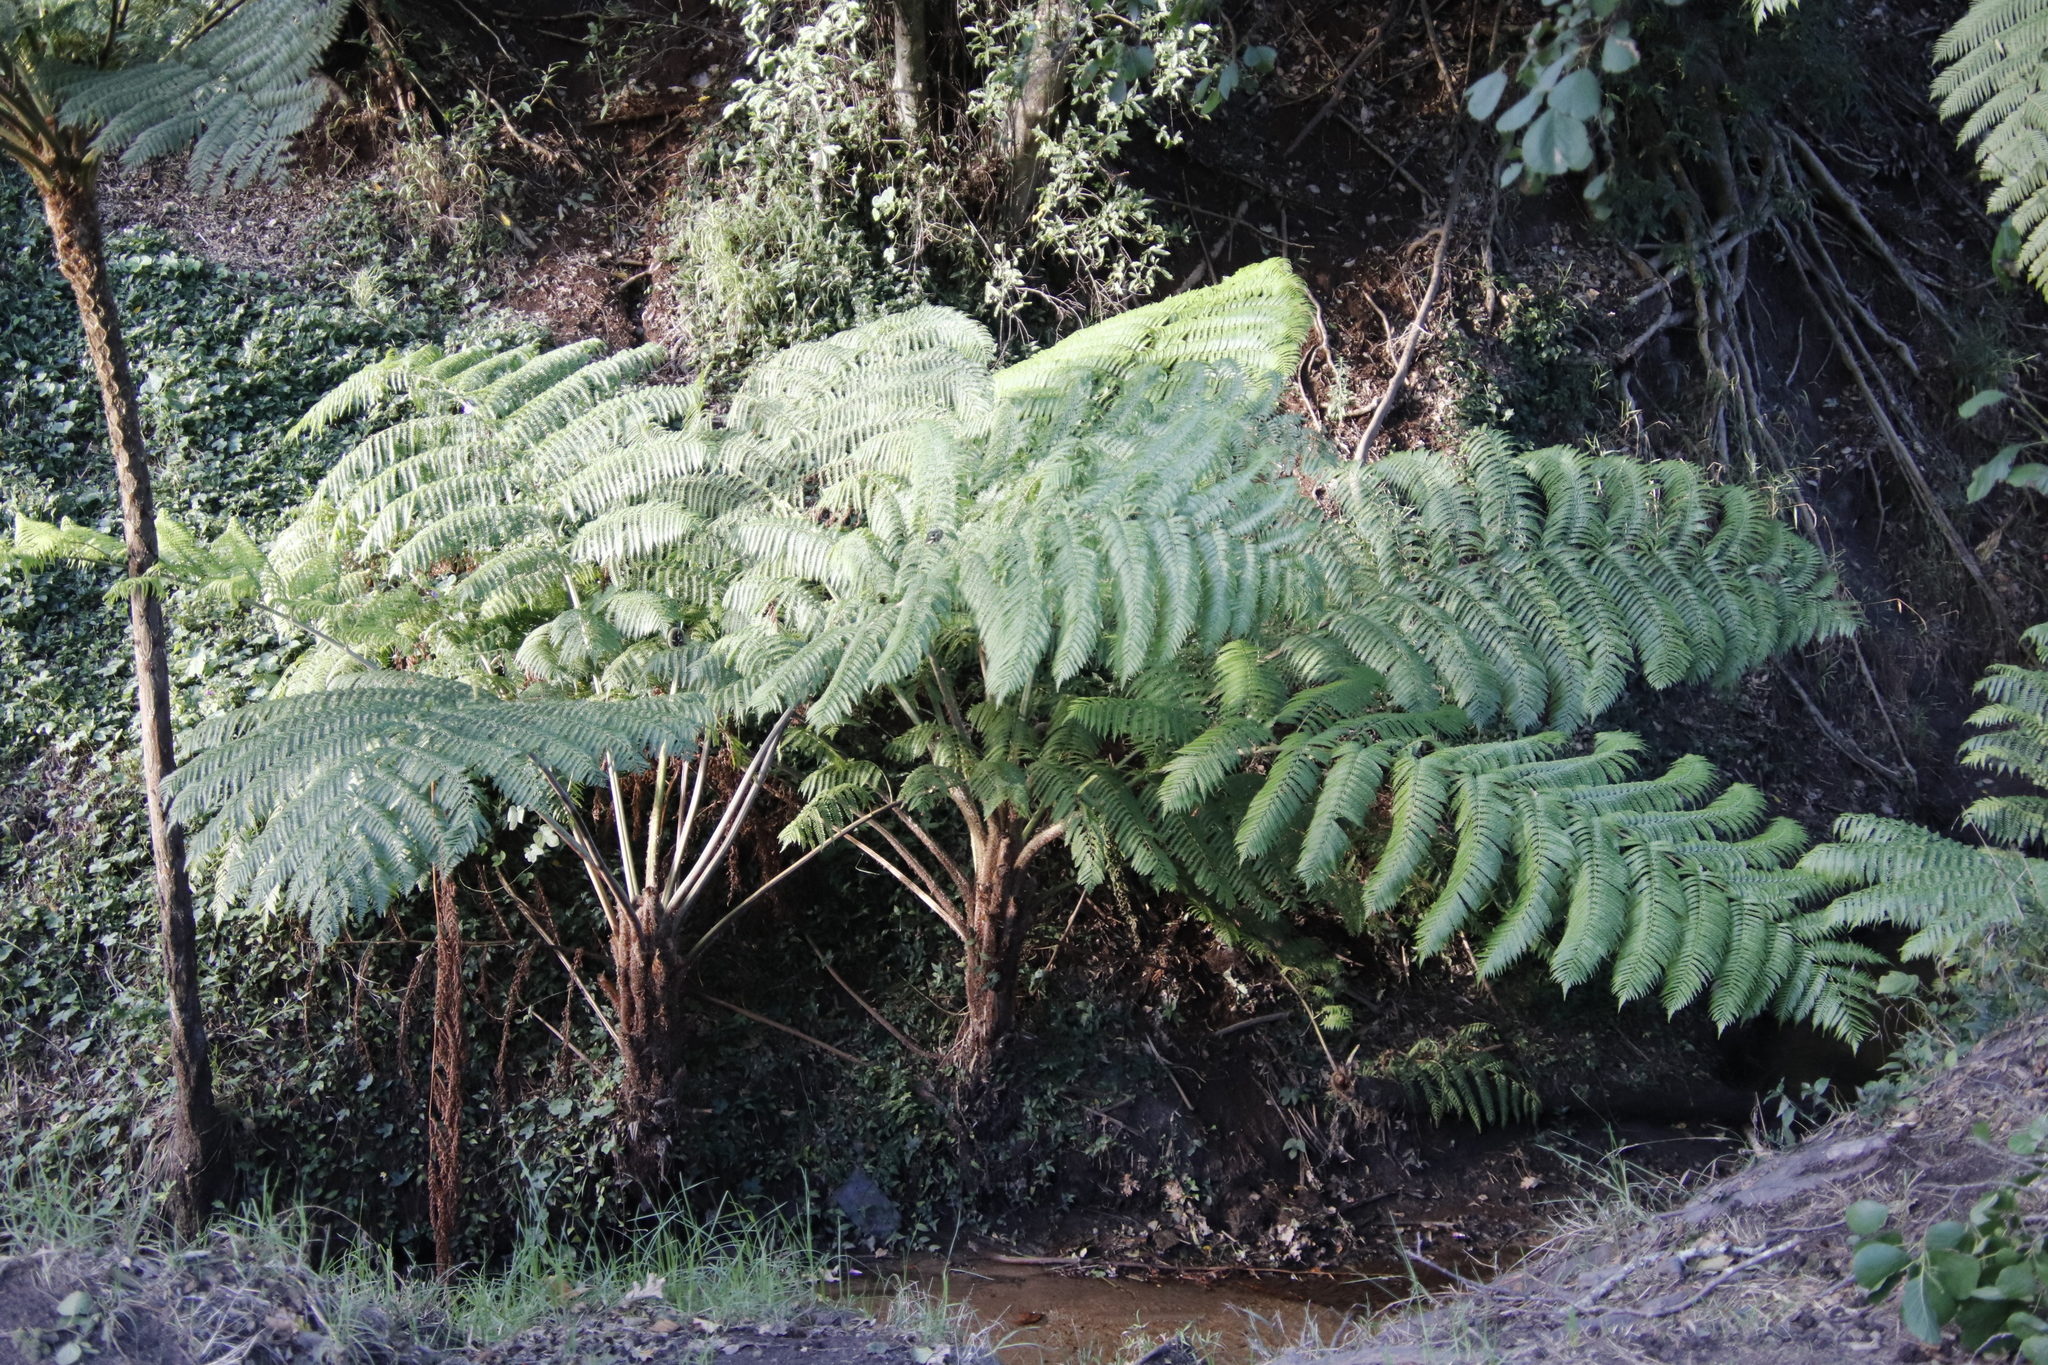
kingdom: Plantae
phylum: Tracheophyta
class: Polypodiopsida
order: Cyatheales
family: Cyatheaceae
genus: Sphaeropteris
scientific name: Sphaeropteris cooperi
